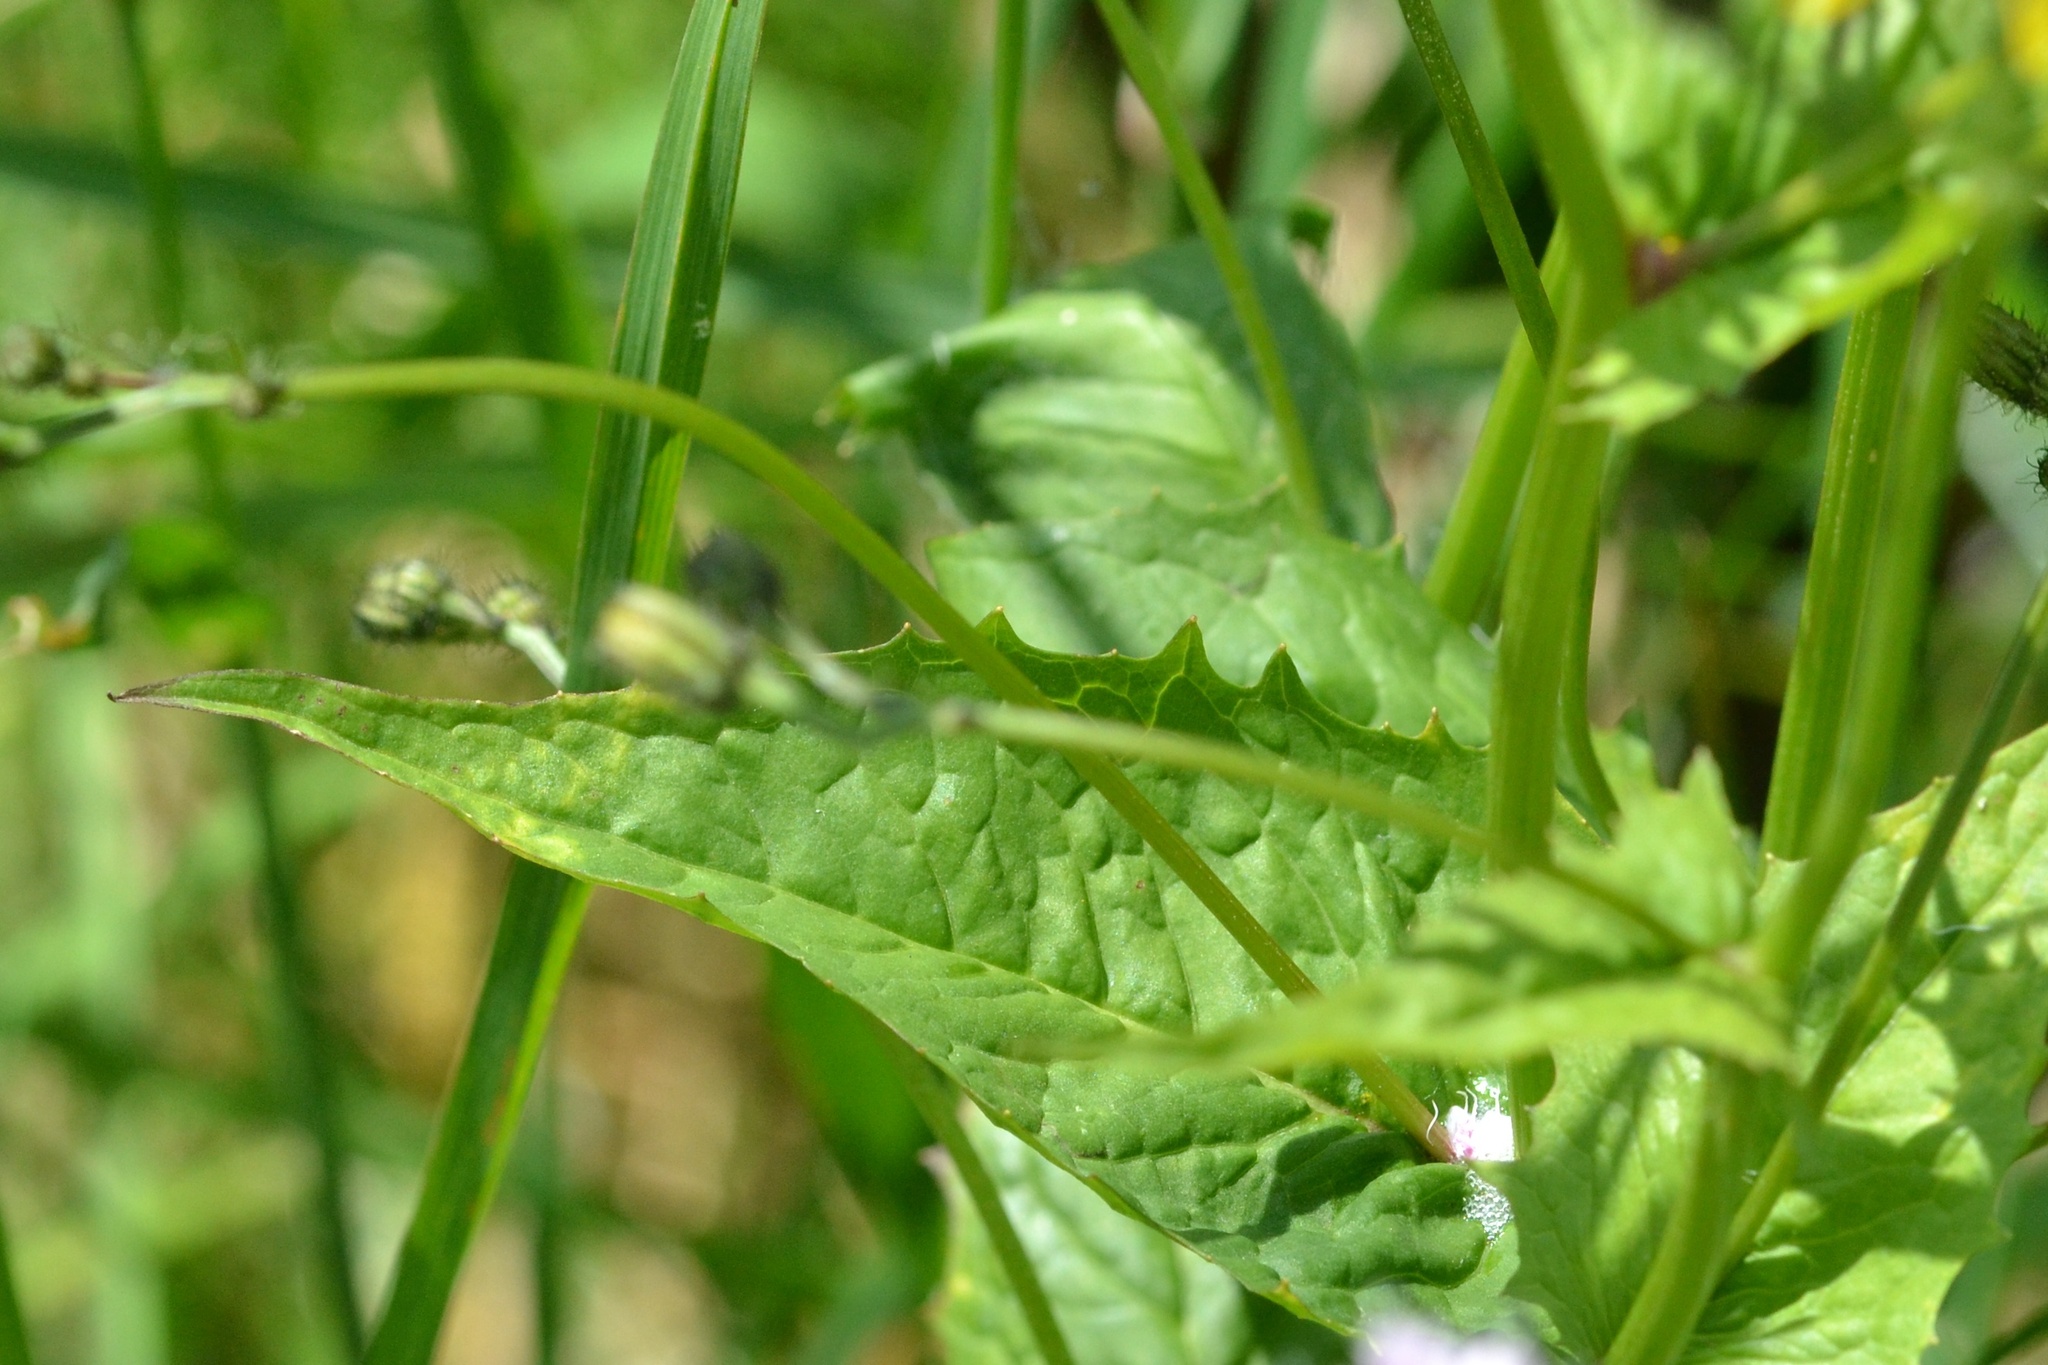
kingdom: Plantae
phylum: Tracheophyta
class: Magnoliopsida
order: Asterales
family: Asteraceae
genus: Crepis
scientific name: Crepis paludosa
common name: Marsh hawk's-beard
